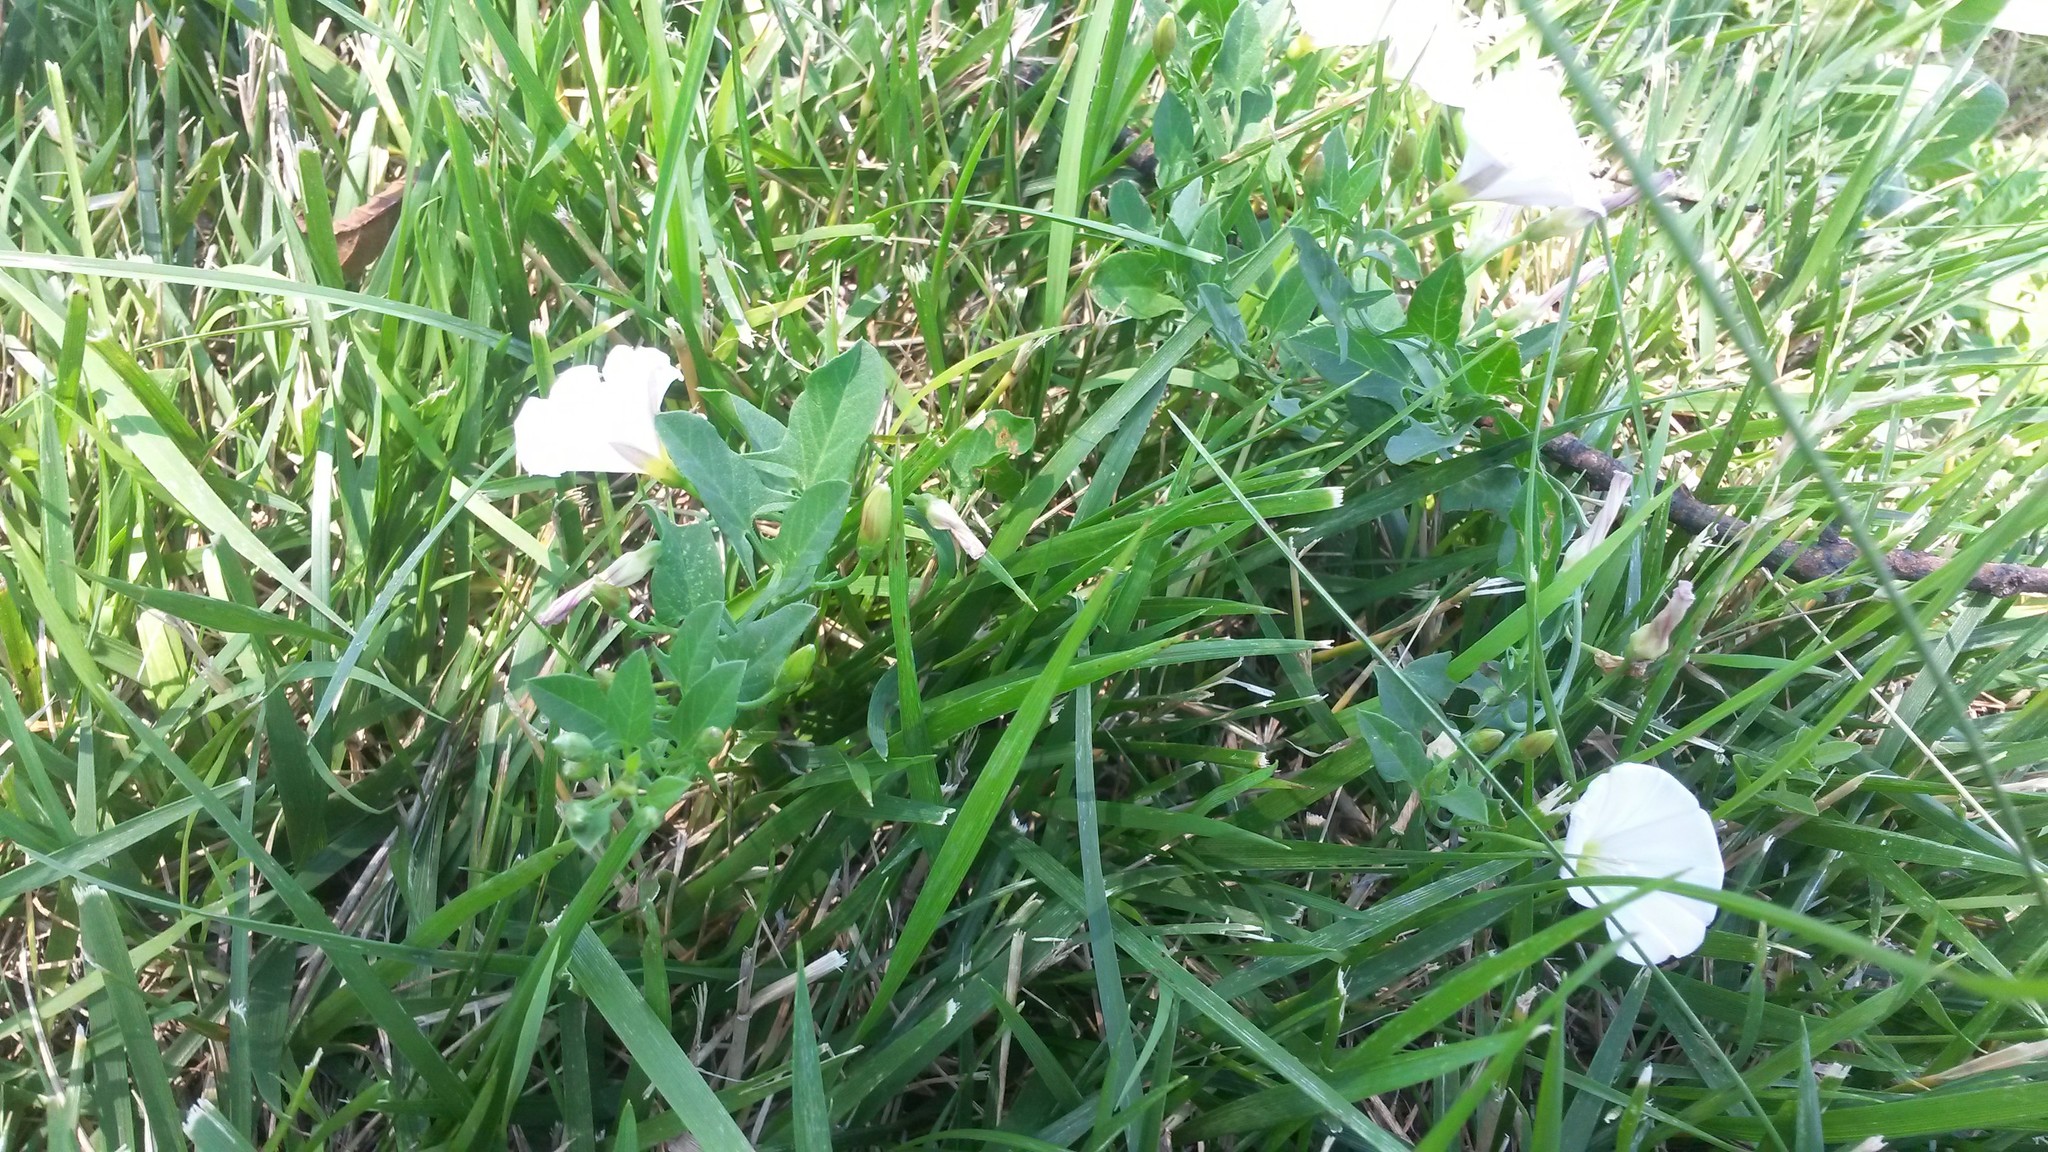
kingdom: Plantae
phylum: Tracheophyta
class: Magnoliopsida
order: Solanales
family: Convolvulaceae
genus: Convolvulus
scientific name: Convolvulus arvensis
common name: Field bindweed
